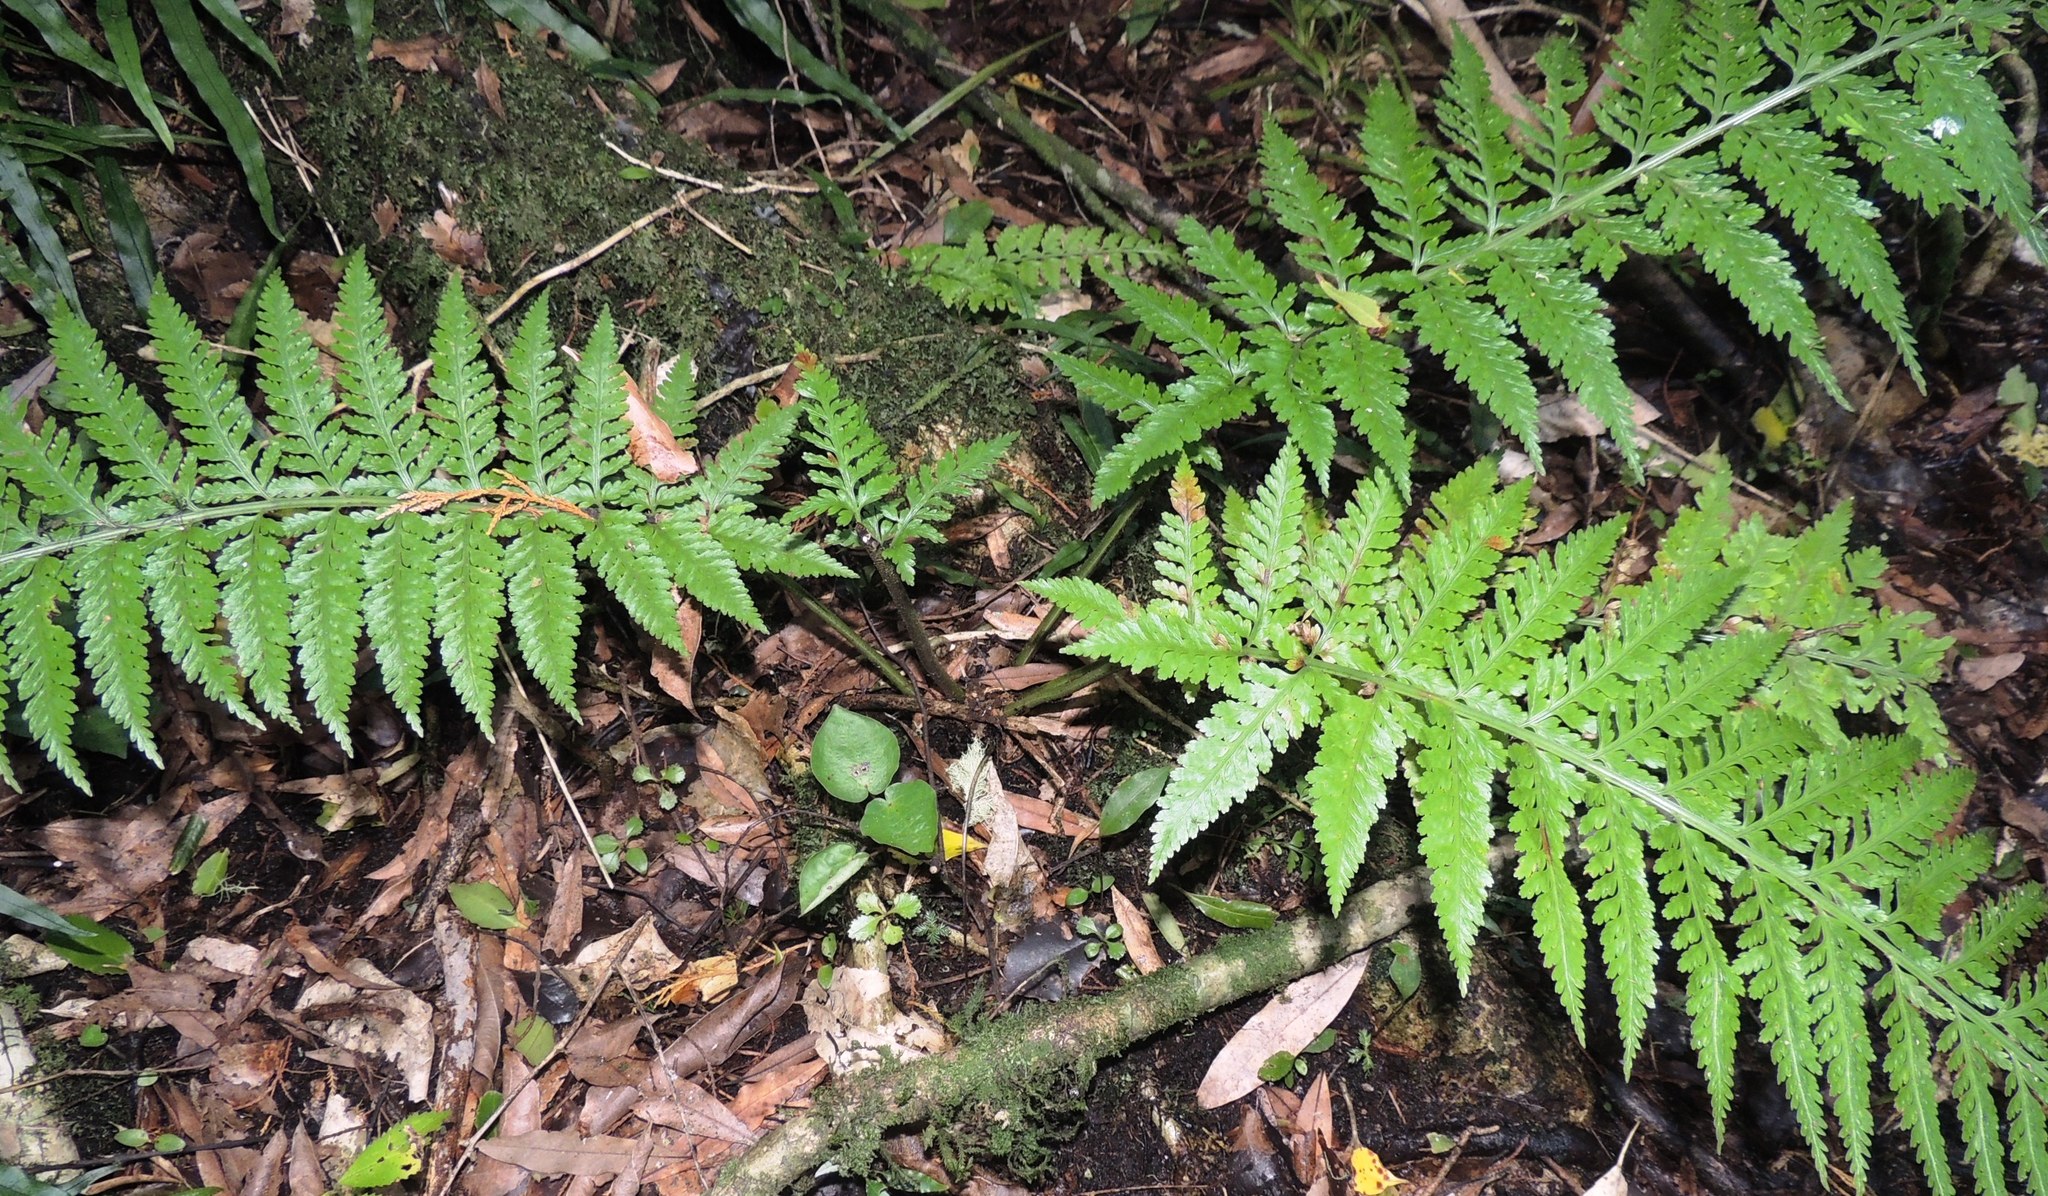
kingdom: Plantae
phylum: Tracheophyta
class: Polypodiopsida
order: Polypodiales
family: Aspleniaceae
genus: Asplenium
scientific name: Asplenium bulbiferum
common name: Mother fern
